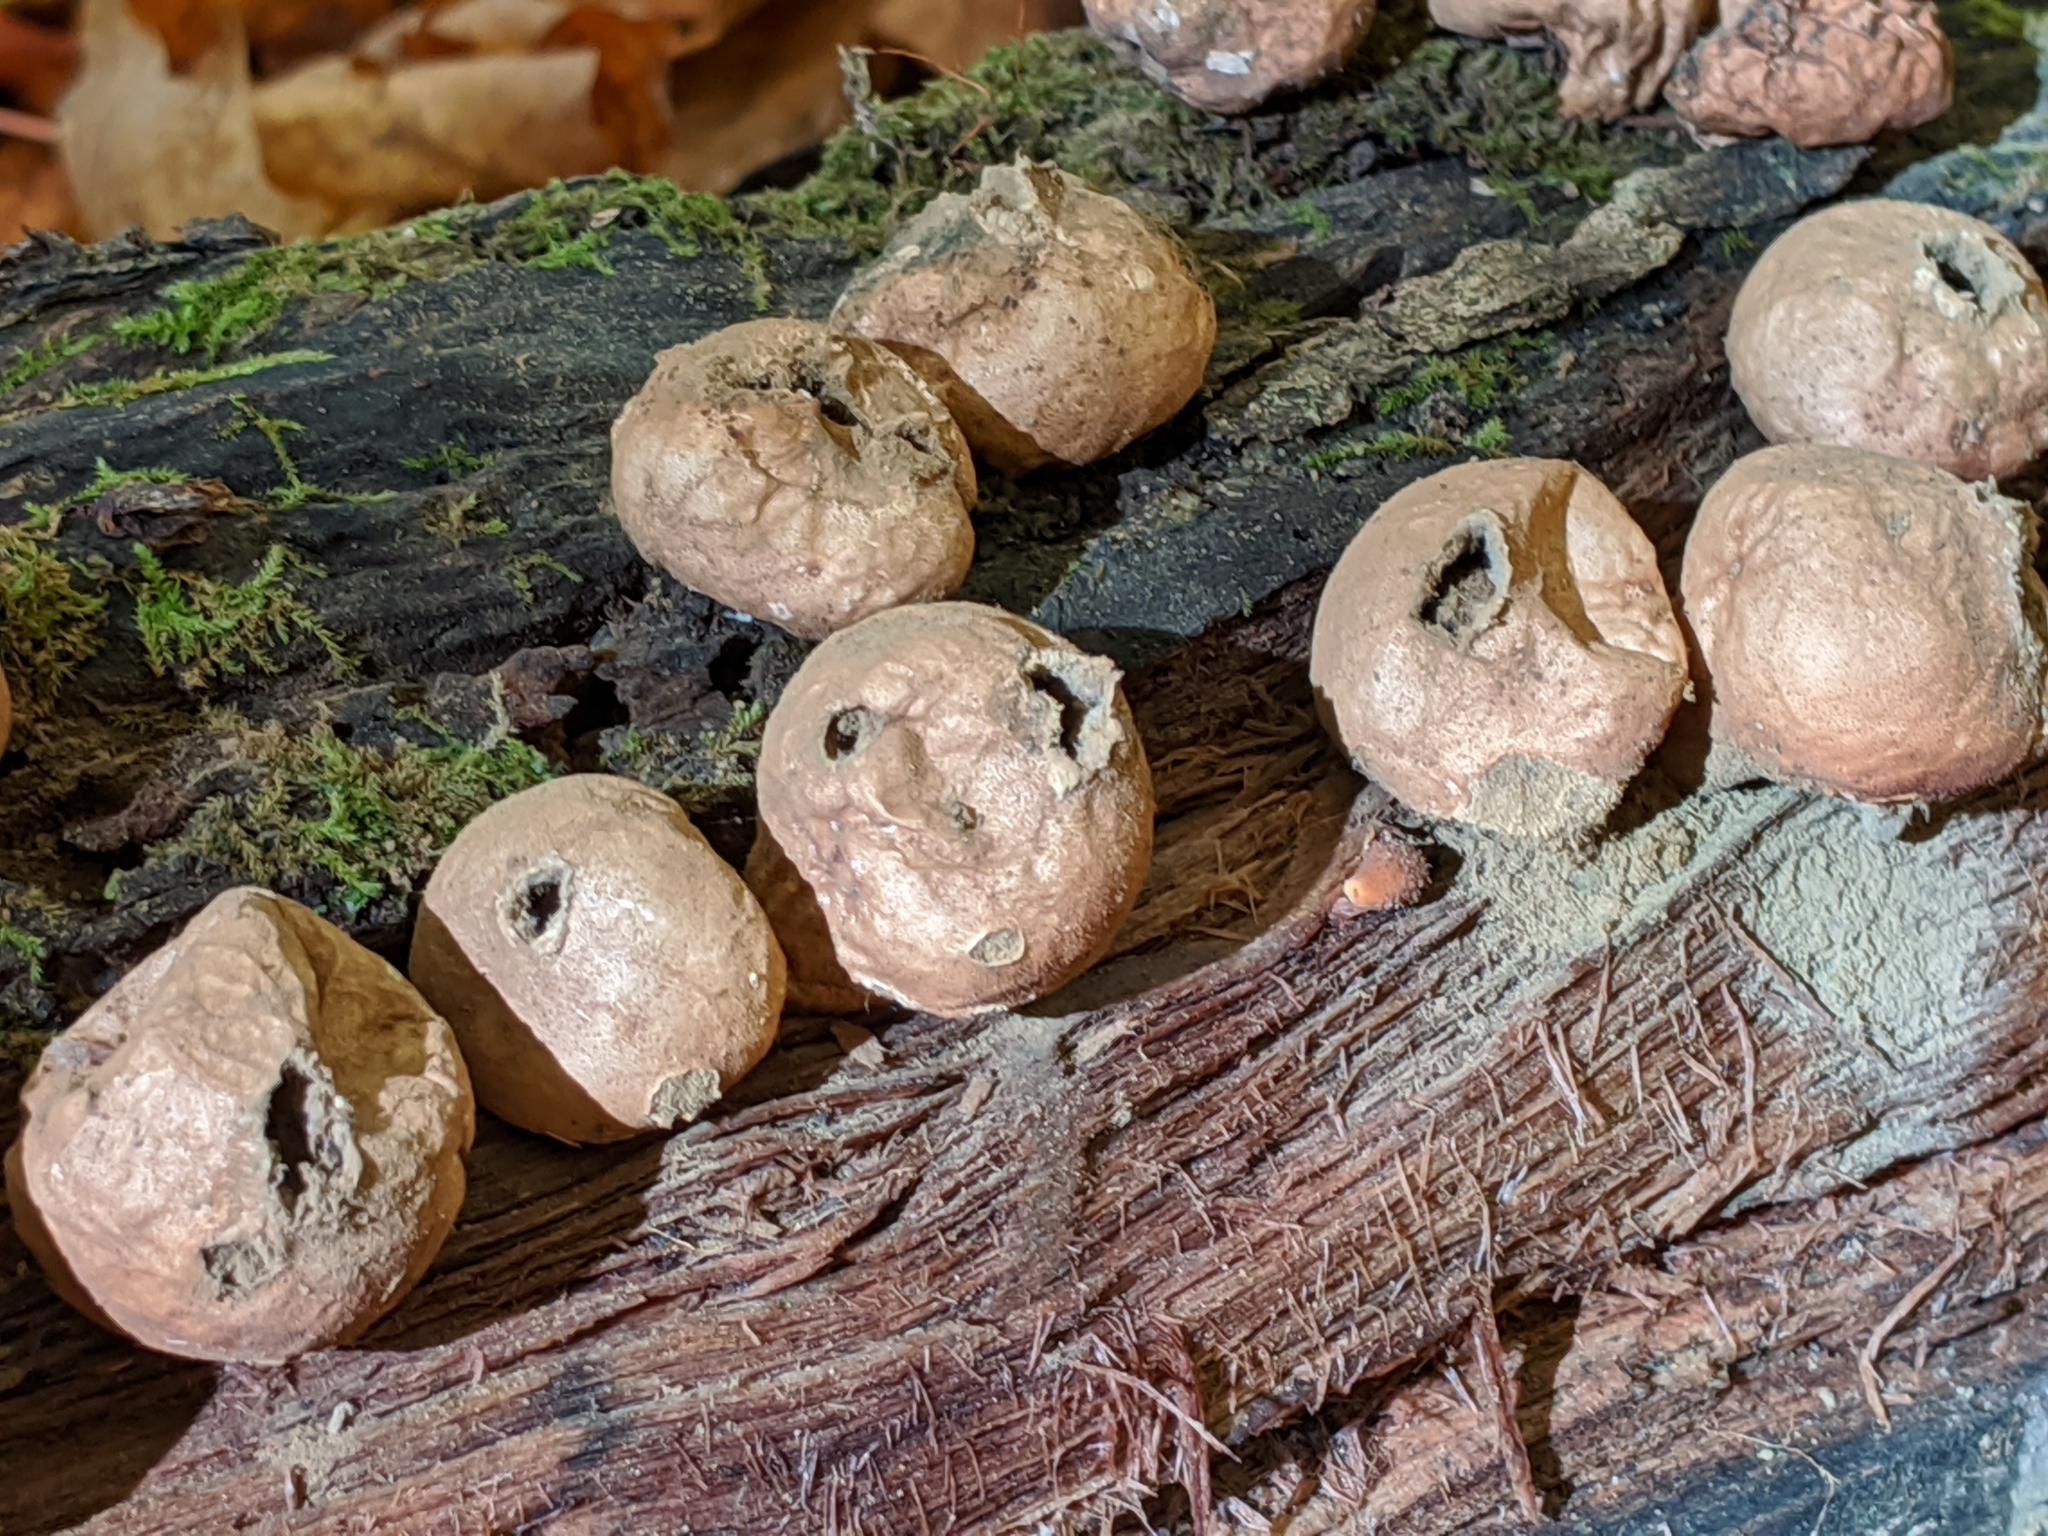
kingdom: Fungi
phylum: Basidiomycota
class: Agaricomycetes
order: Agaricales
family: Lycoperdaceae
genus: Apioperdon
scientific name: Apioperdon pyriforme
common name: Pear-shaped puffball
